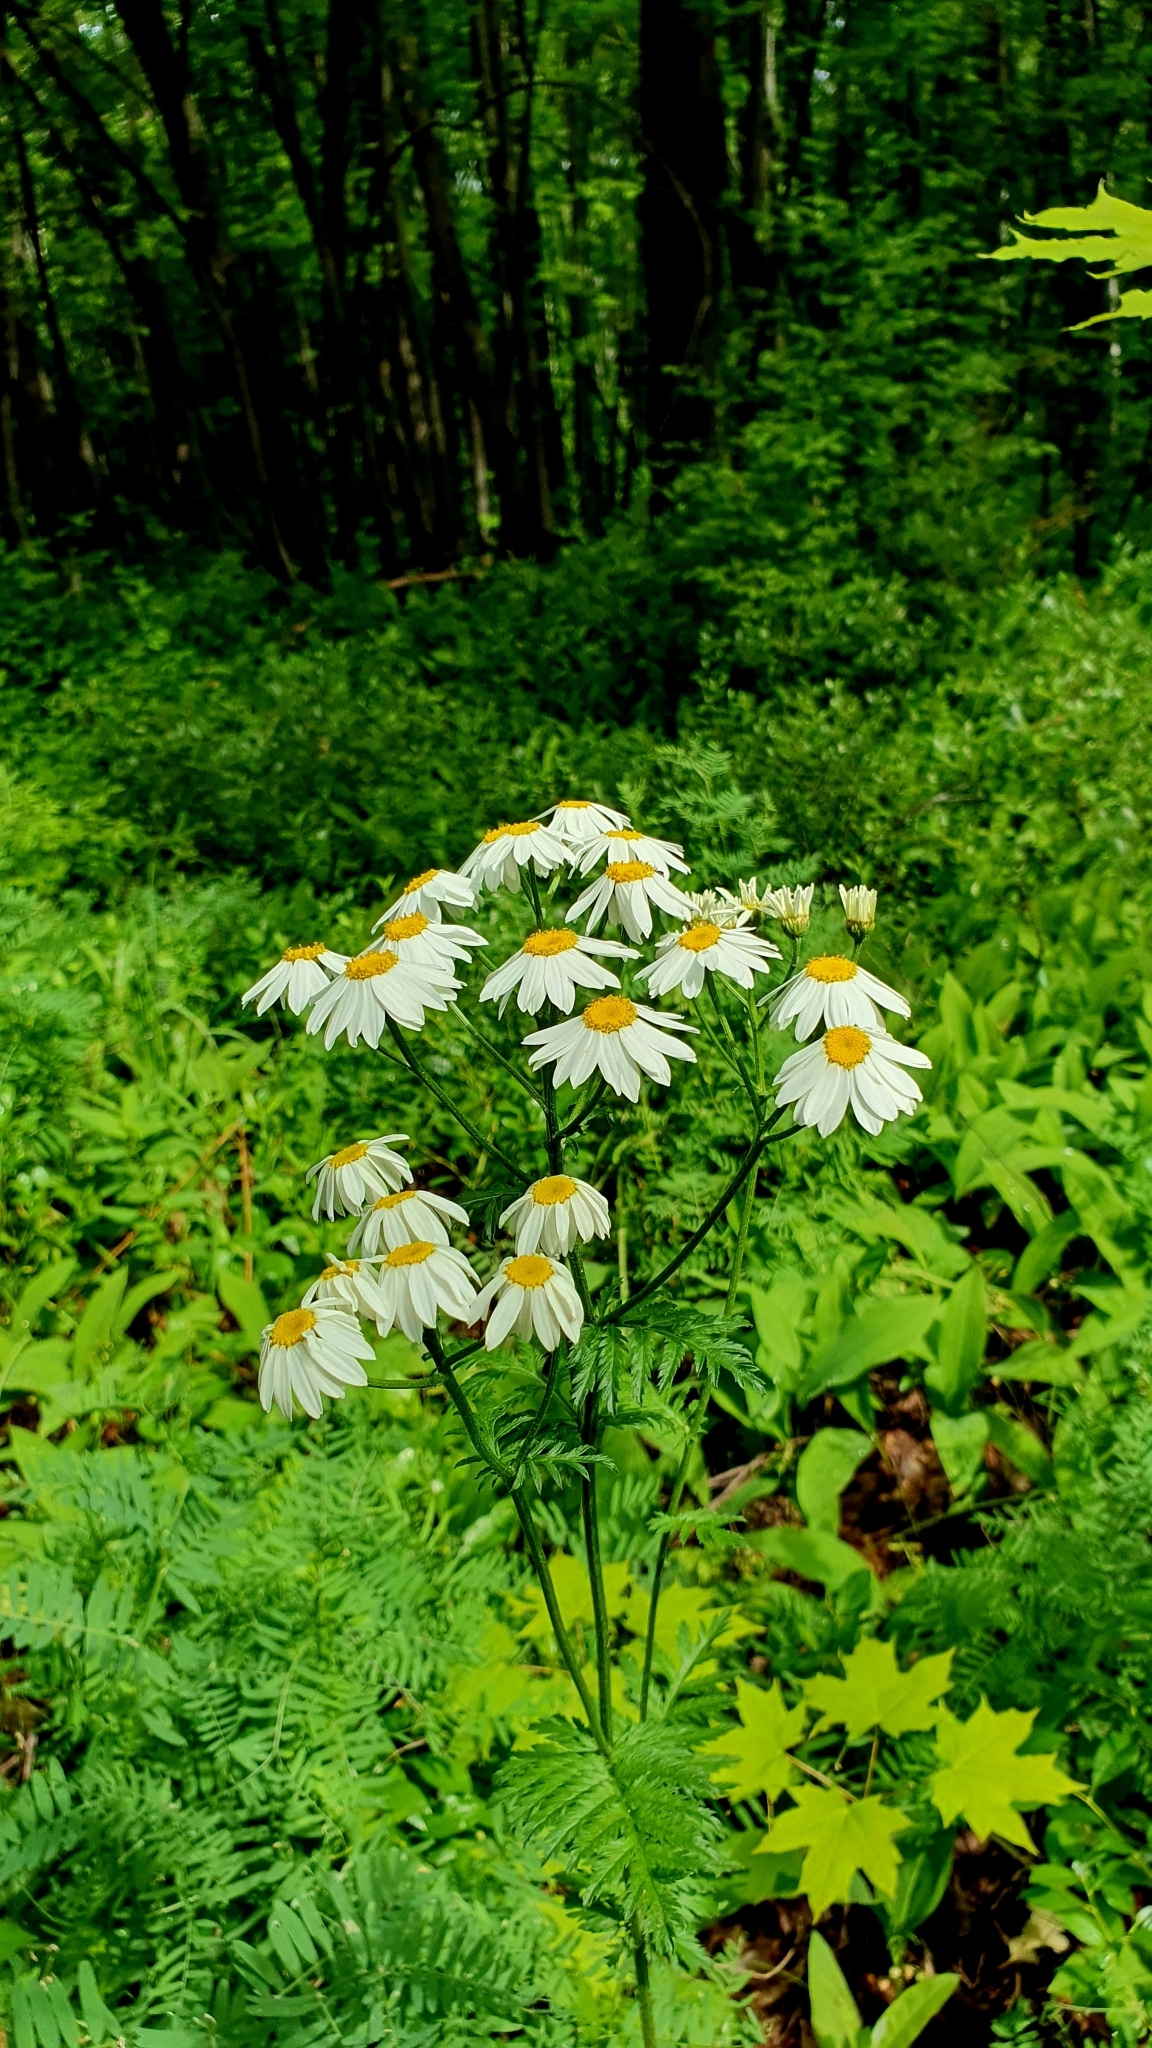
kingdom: Plantae
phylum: Tracheophyta
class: Magnoliopsida
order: Asterales
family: Asteraceae
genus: Tanacetum
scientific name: Tanacetum corymbosum
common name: Scentless feverfew
